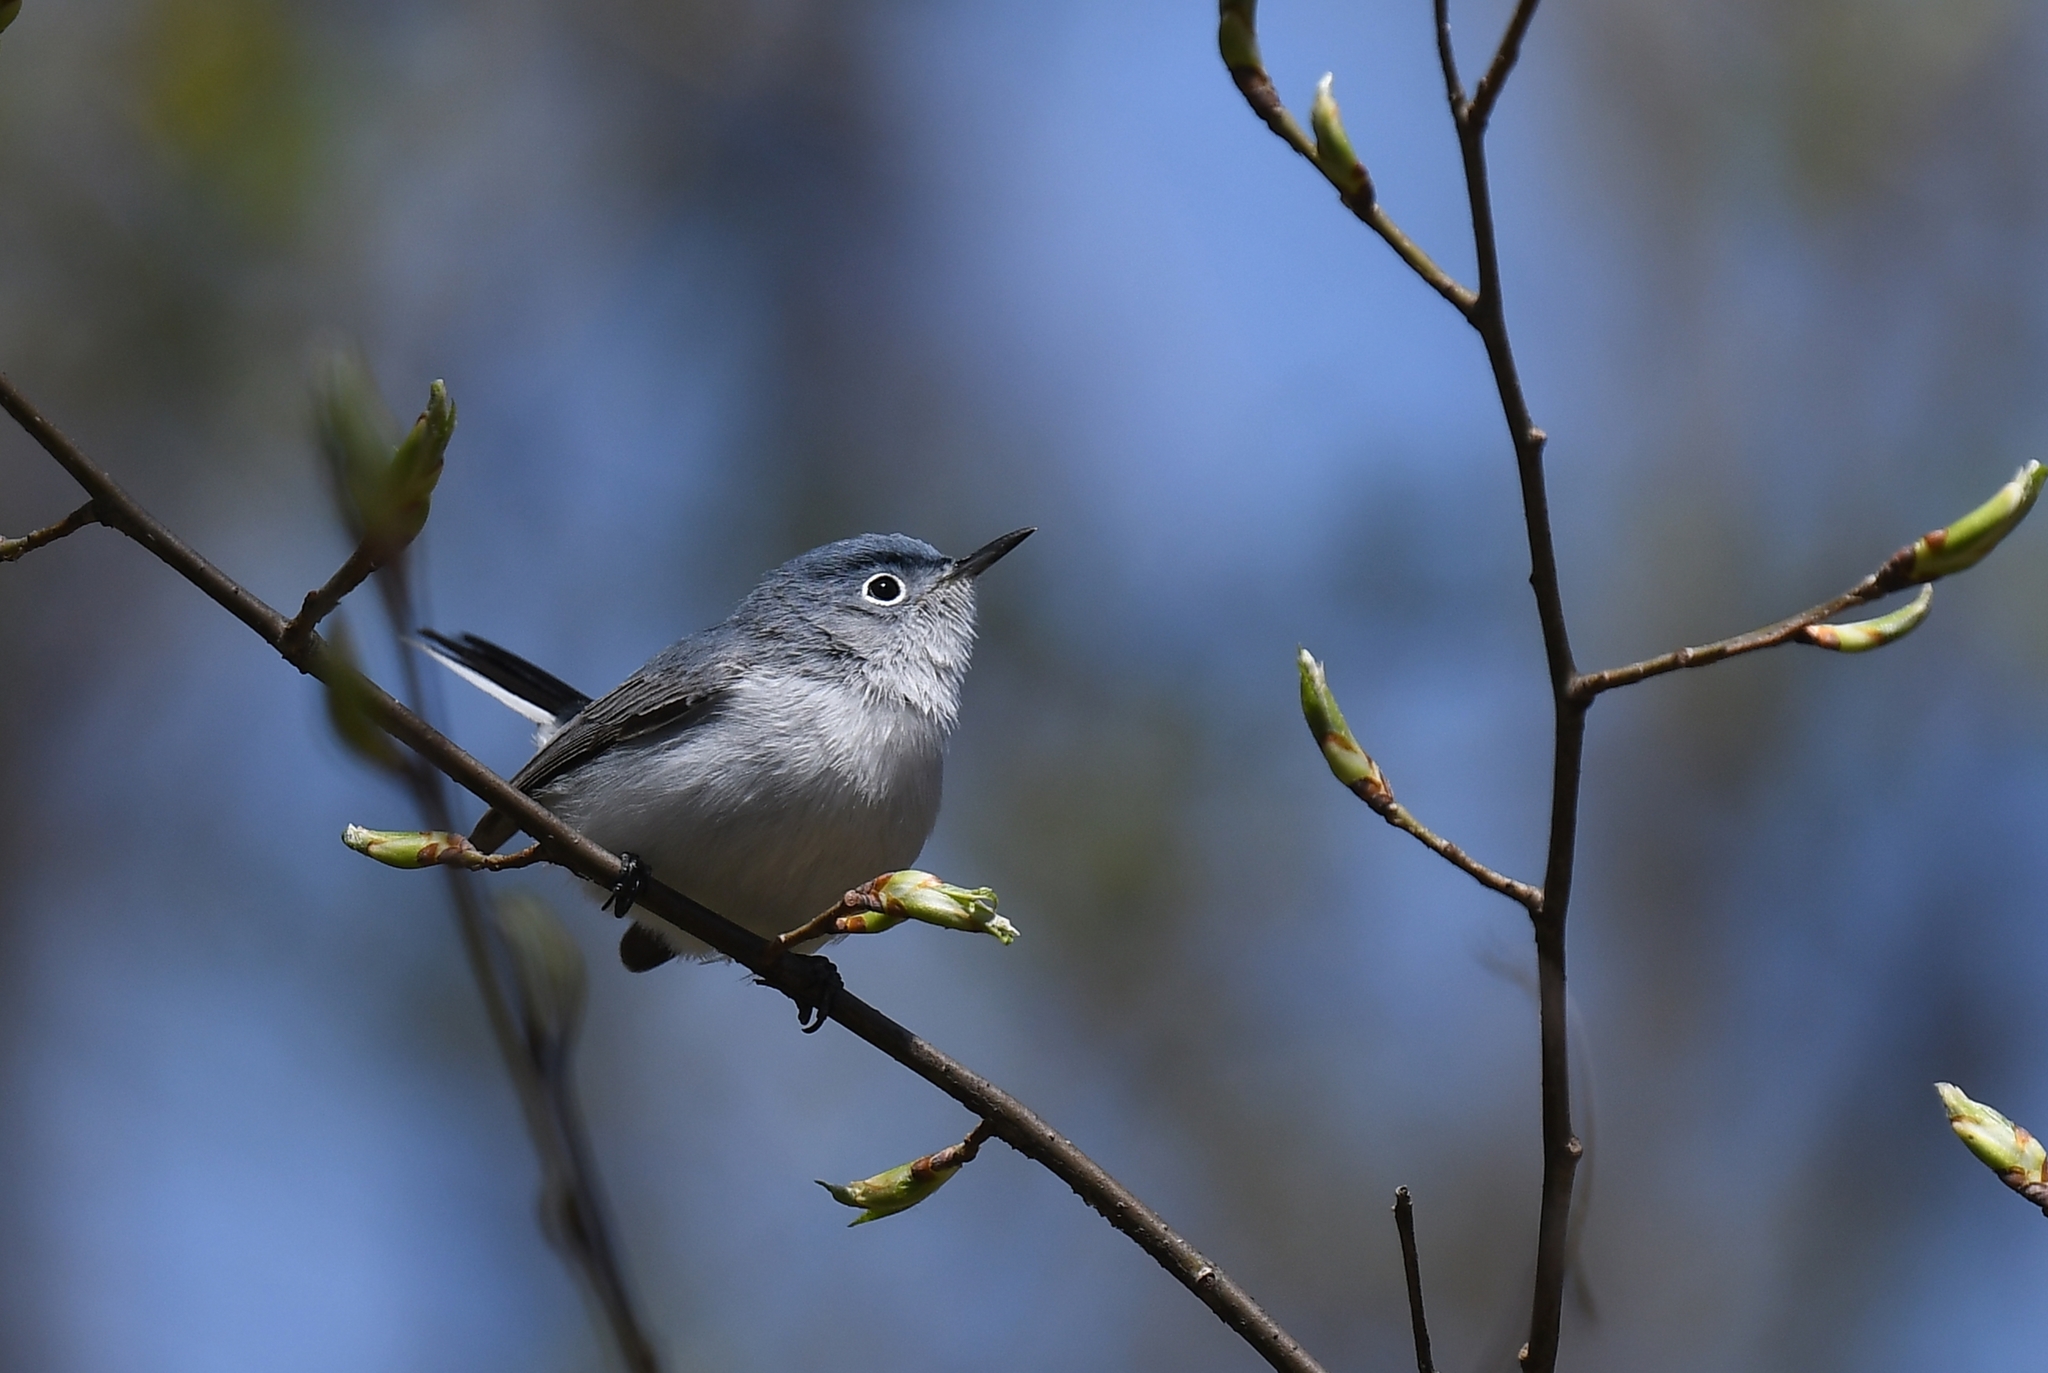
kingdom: Animalia
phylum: Chordata
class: Aves
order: Passeriformes
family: Polioptilidae
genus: Polioptila
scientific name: Polioptila caerulea
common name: Blue-gray gnatcatcher
